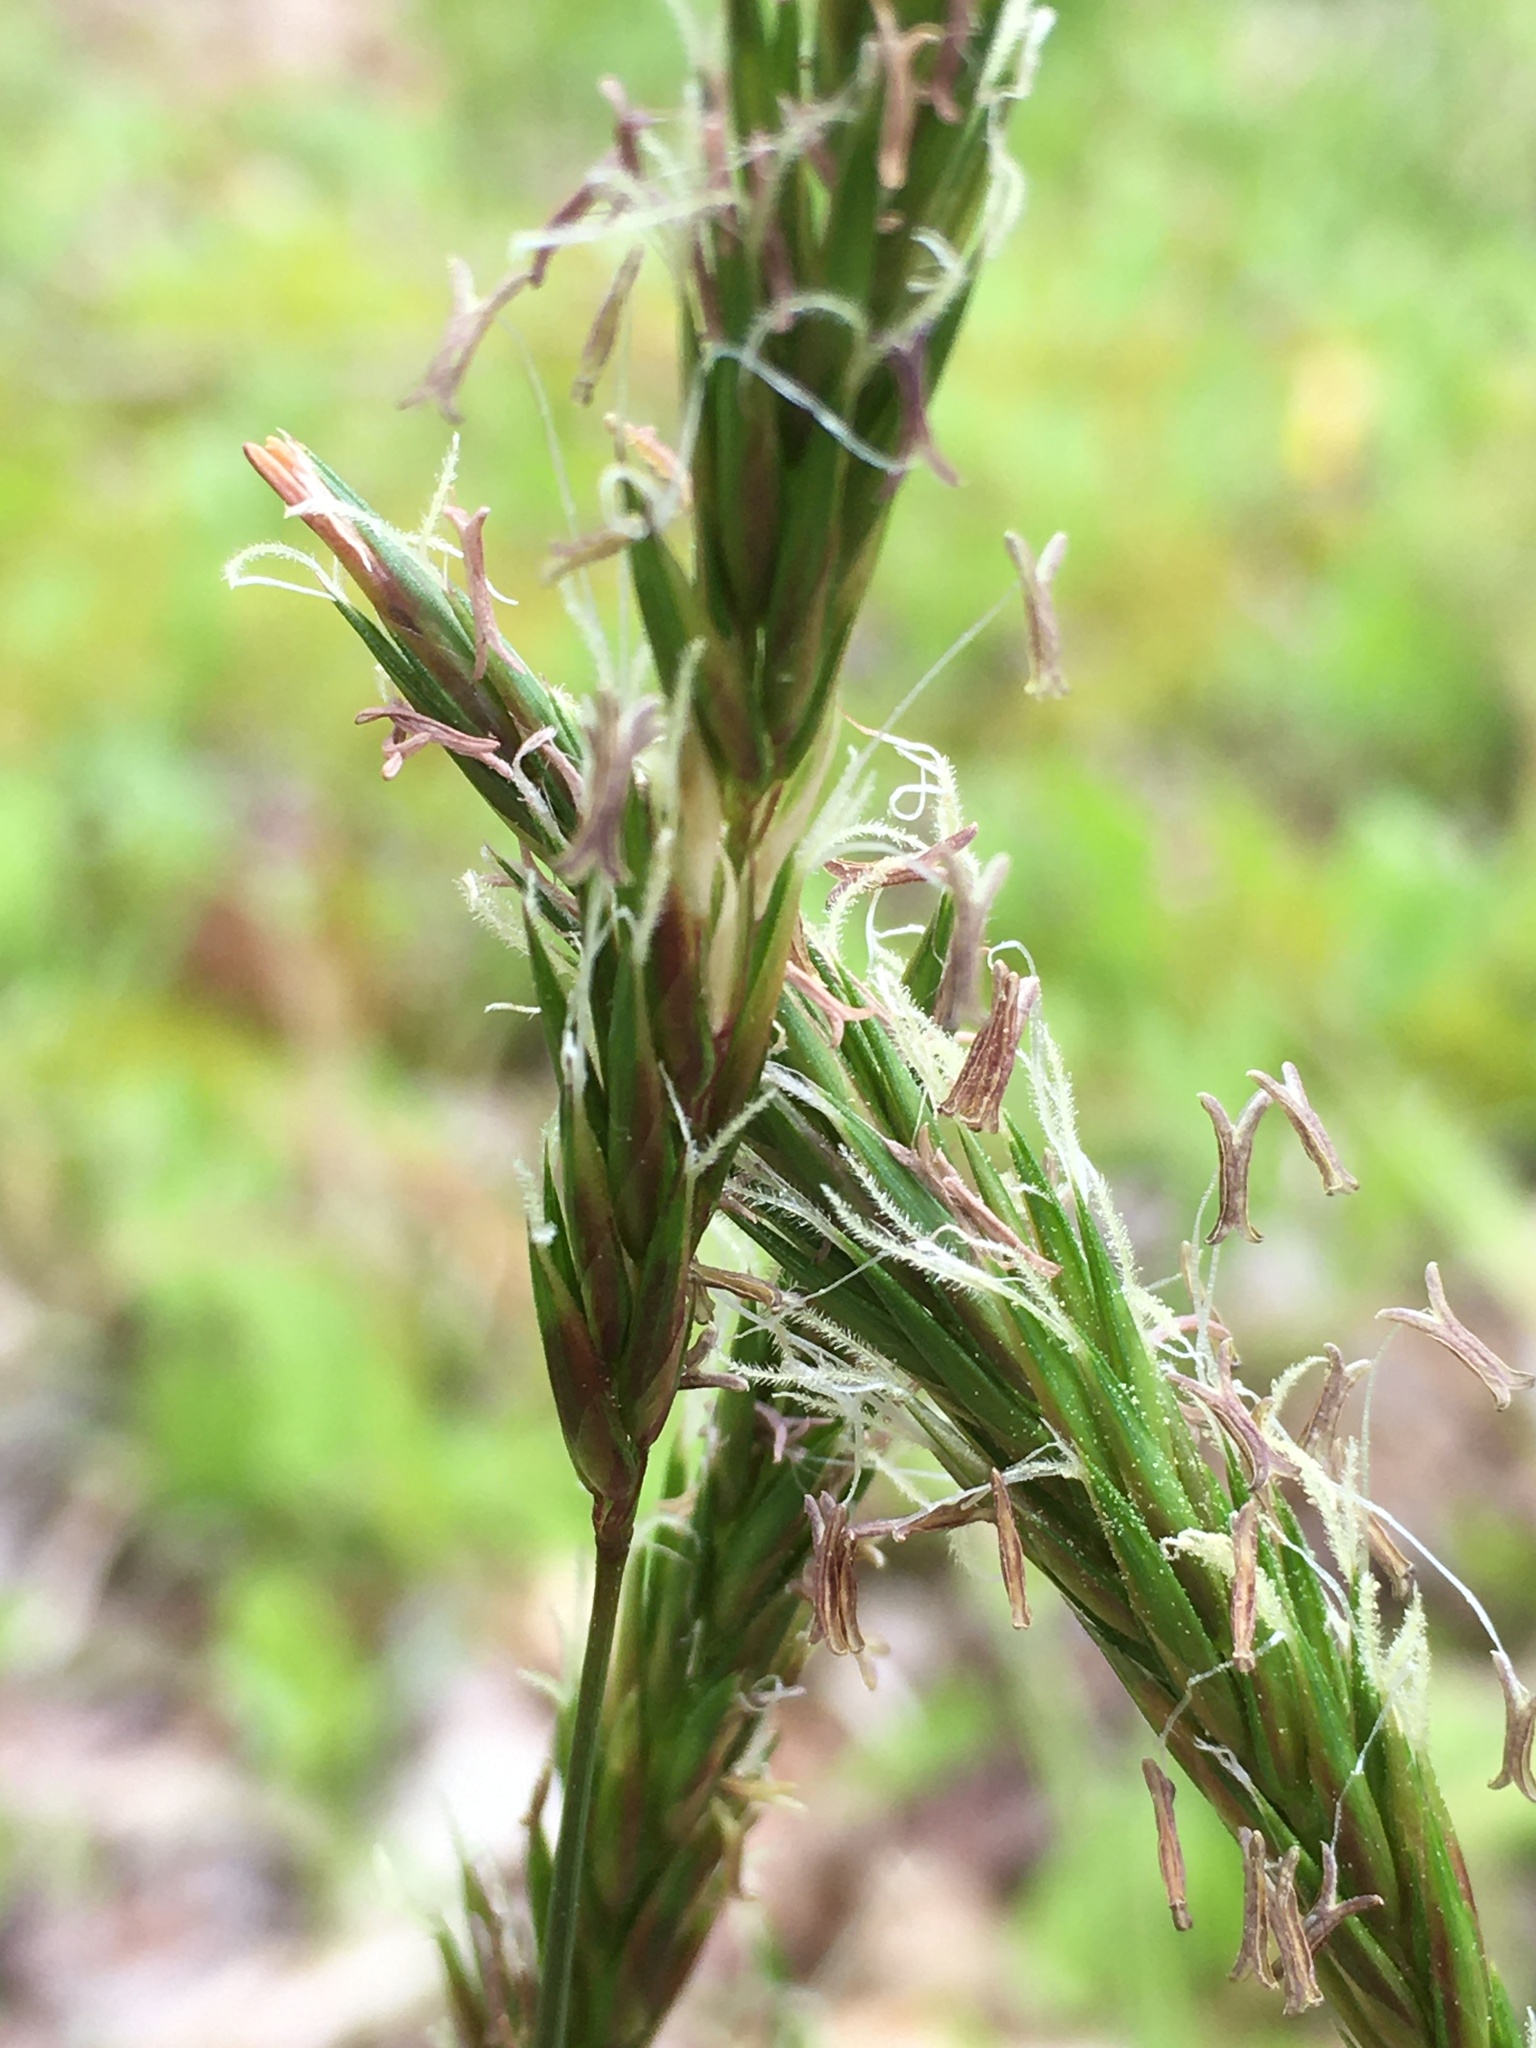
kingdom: Plantae
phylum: Tracheophyta
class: Liliopsida
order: Poales
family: Poaceae
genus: Anthoxanthum
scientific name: Anthoxanthum odoratum
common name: Sweet vernalgrass
